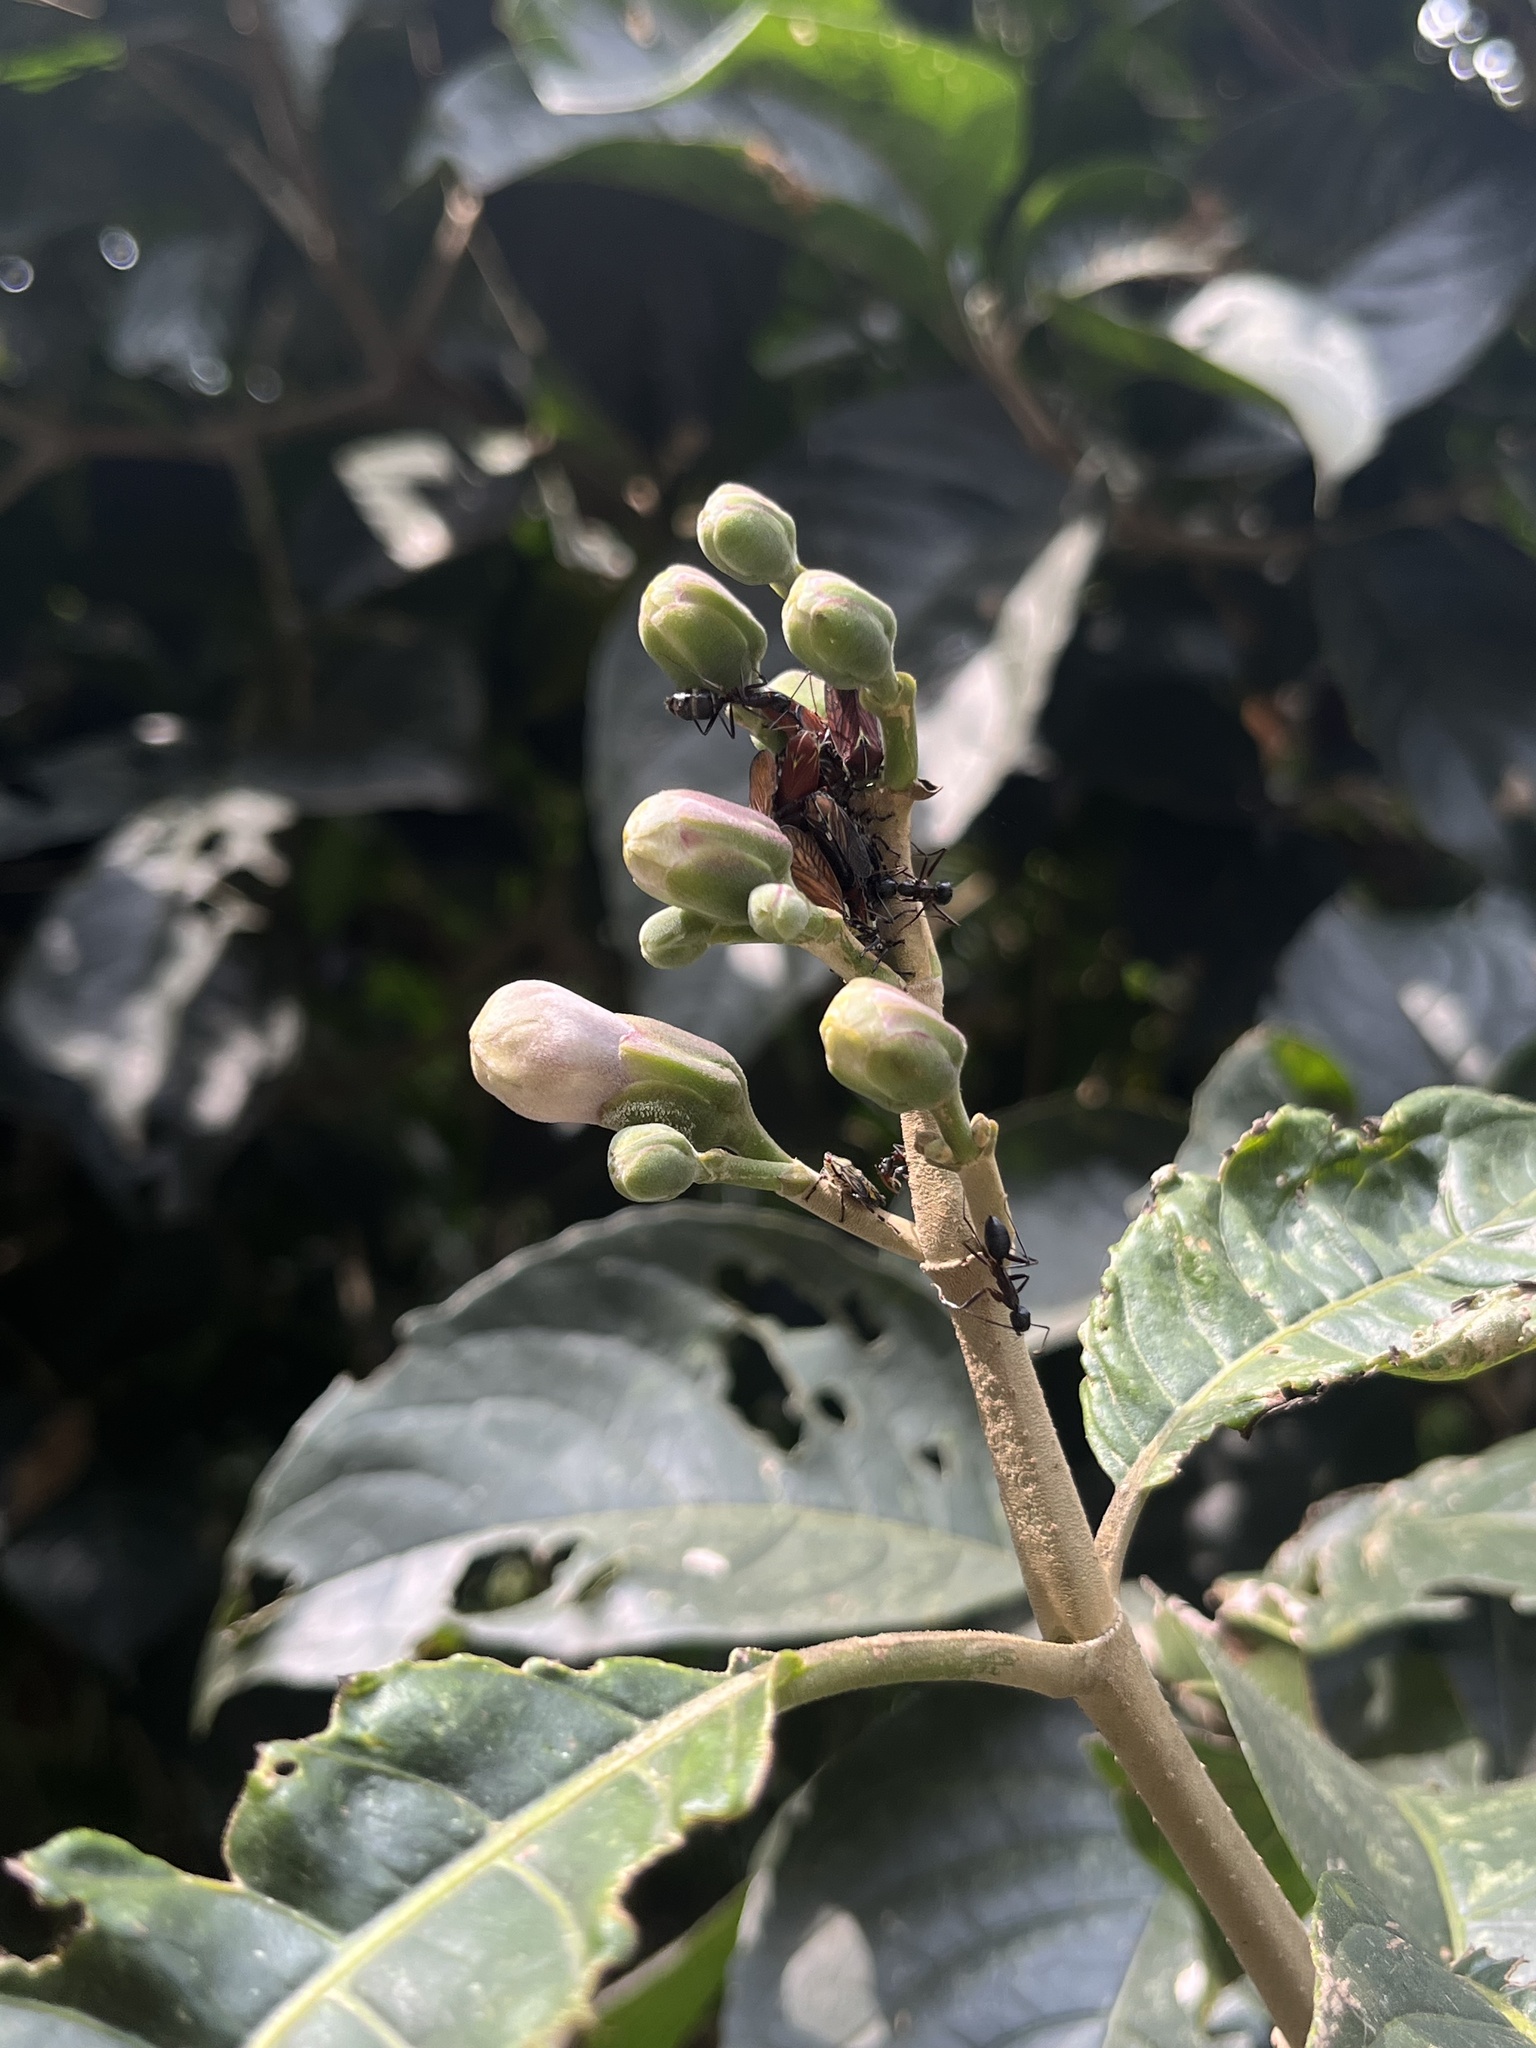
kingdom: Plantae
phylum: Tracheophyta
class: Magnoliopsida
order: Lamiales
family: Acanthaceae
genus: Trichanthera
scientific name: Trichanthera gigantea
